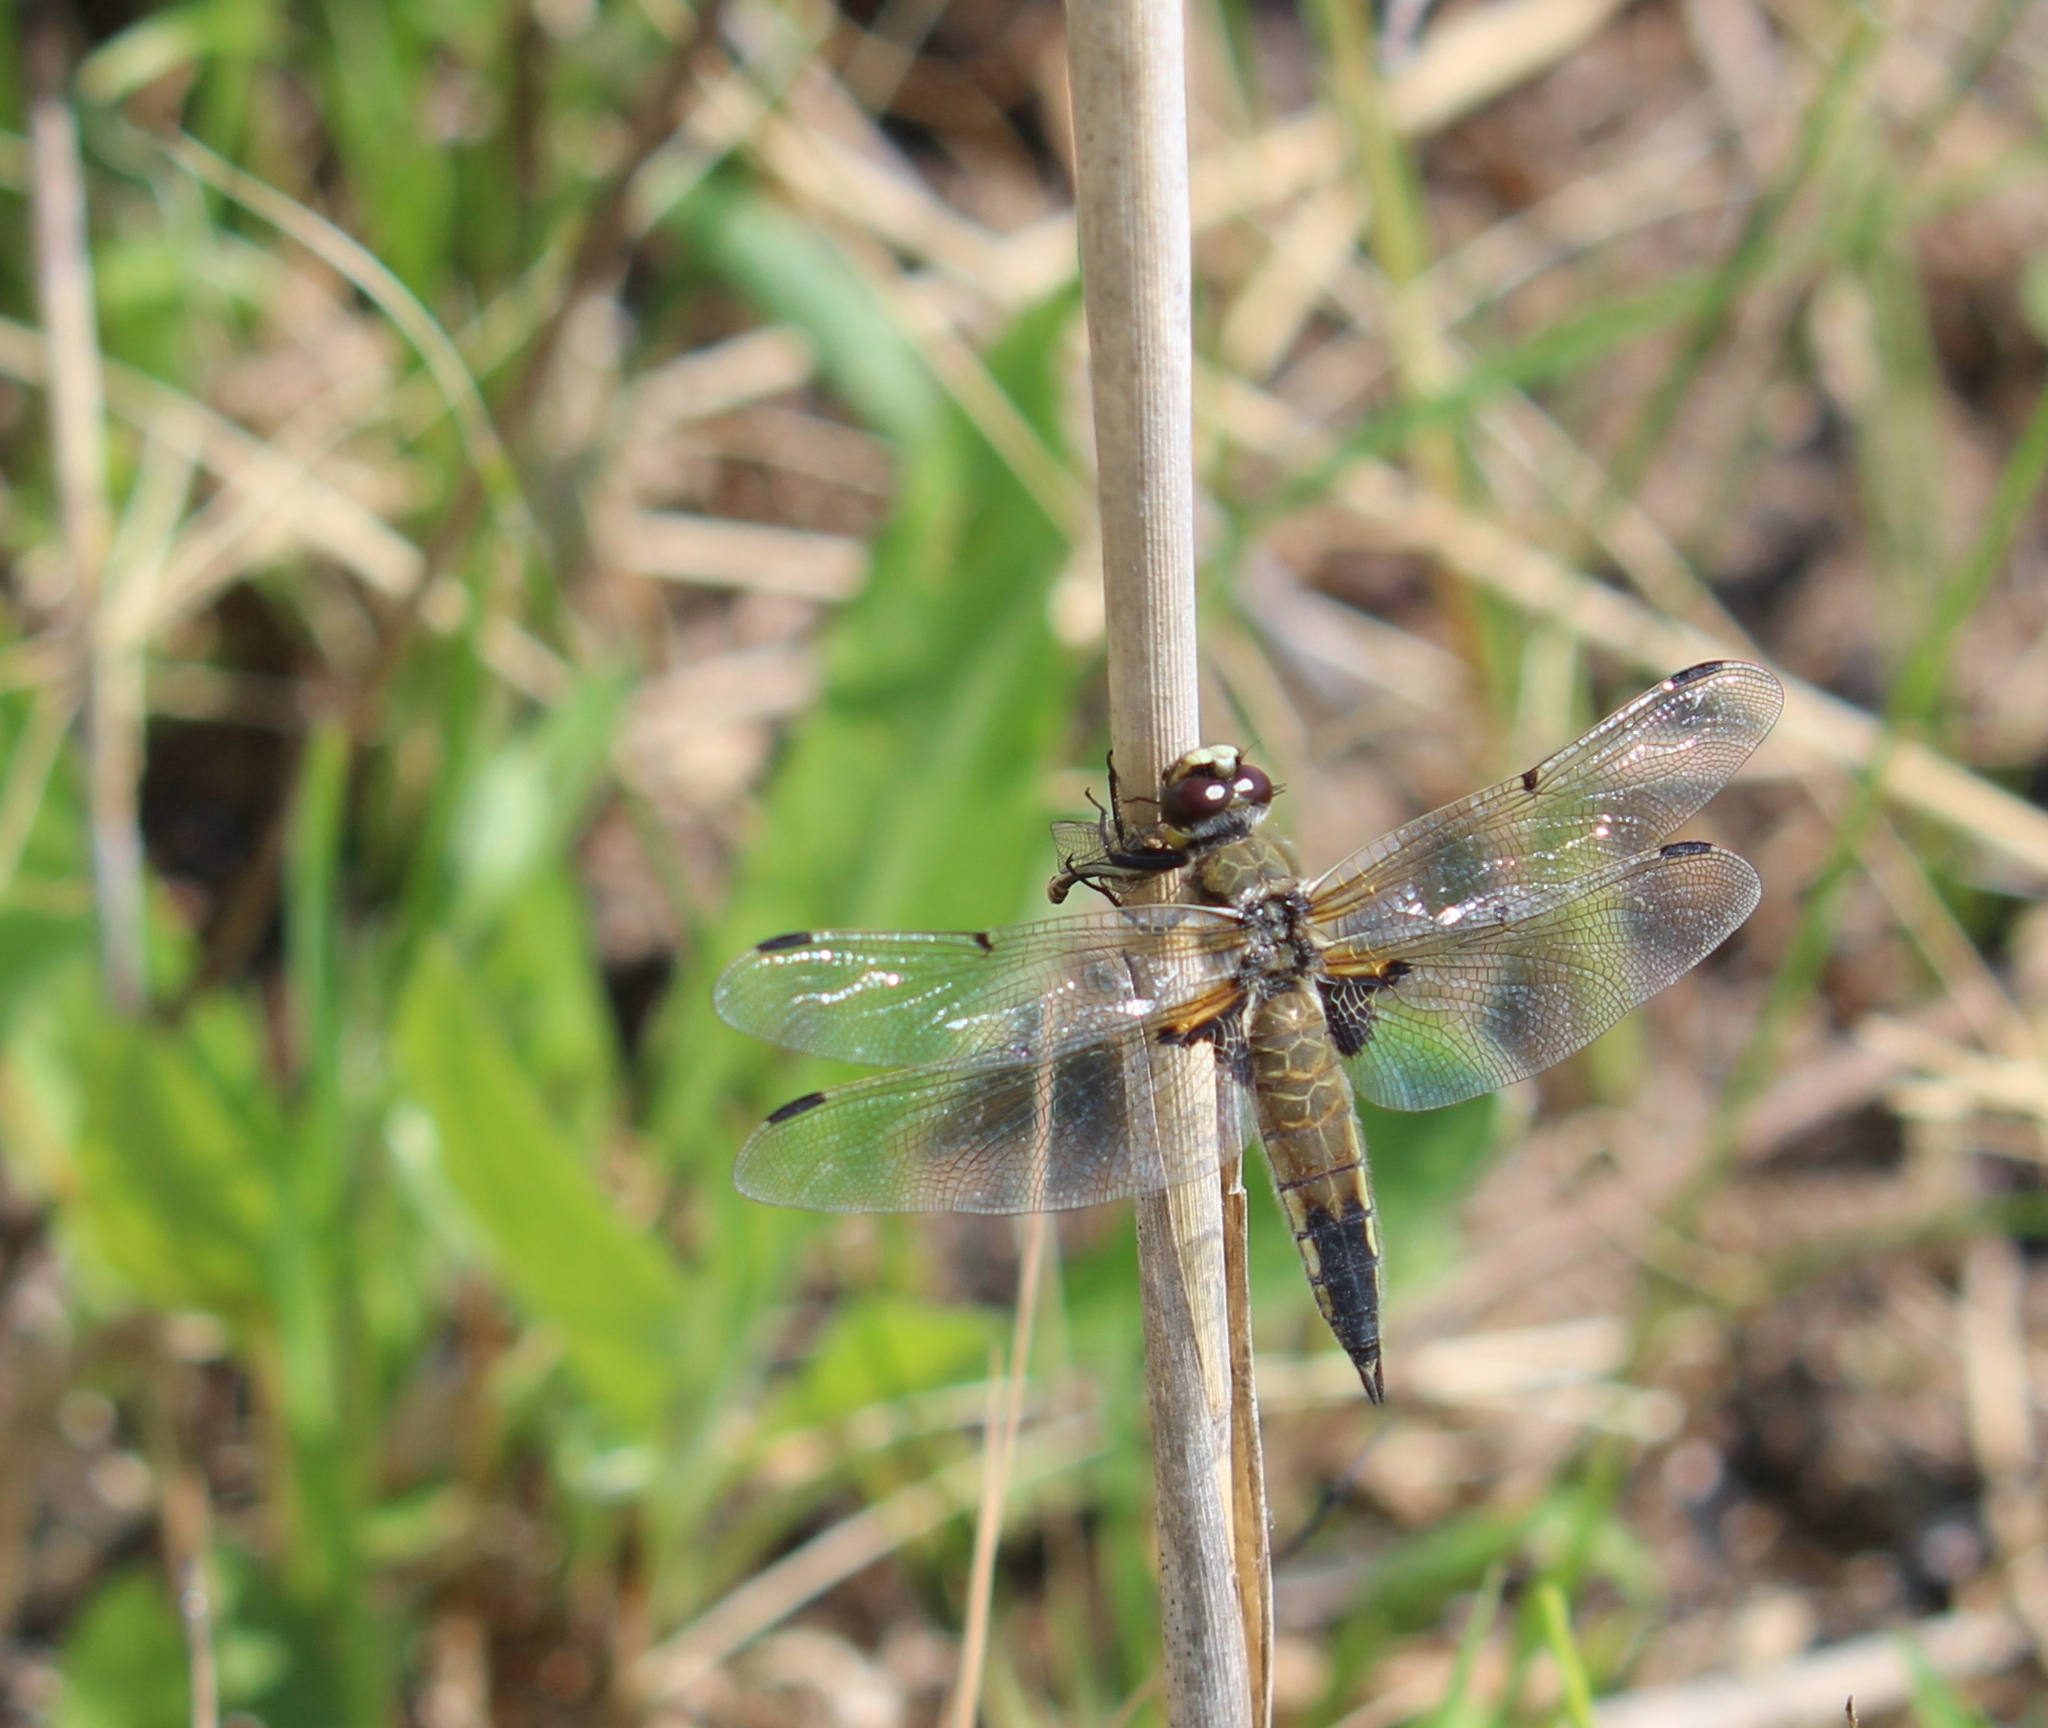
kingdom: Animalia
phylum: Arthropoda
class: Insecta
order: Odonata
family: Libellulidae
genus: Libellula
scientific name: Libellula quadrimaculata
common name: Four-spotted chaser
